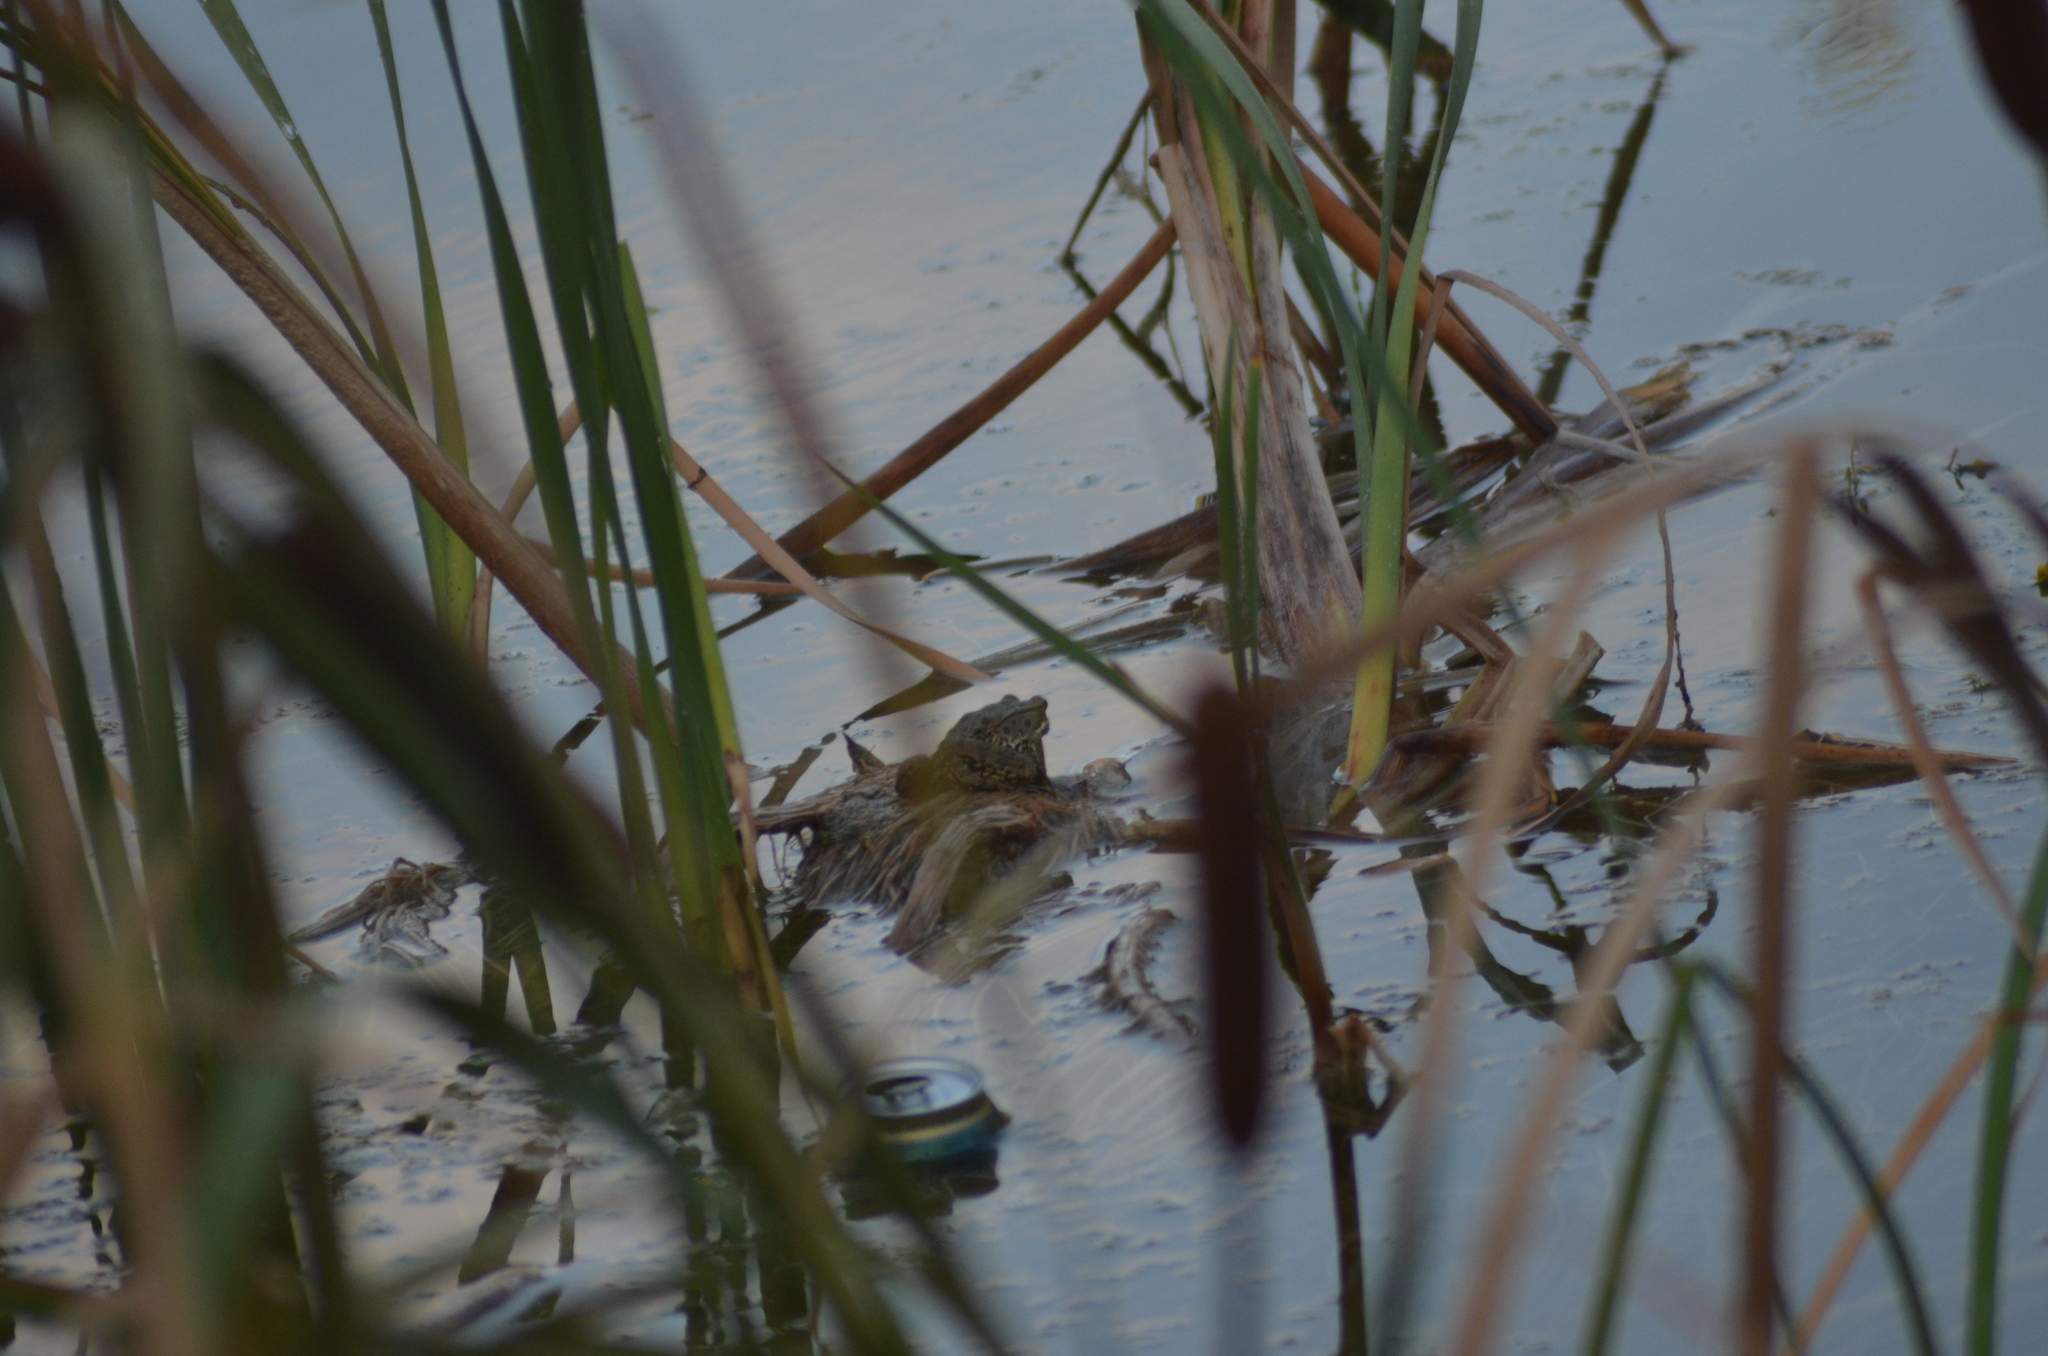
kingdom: Animalia
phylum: Chordata
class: Amphibia
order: Anura
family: Ranidae
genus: Pelophylax
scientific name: Pelophylax perezi
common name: Perez's frog
